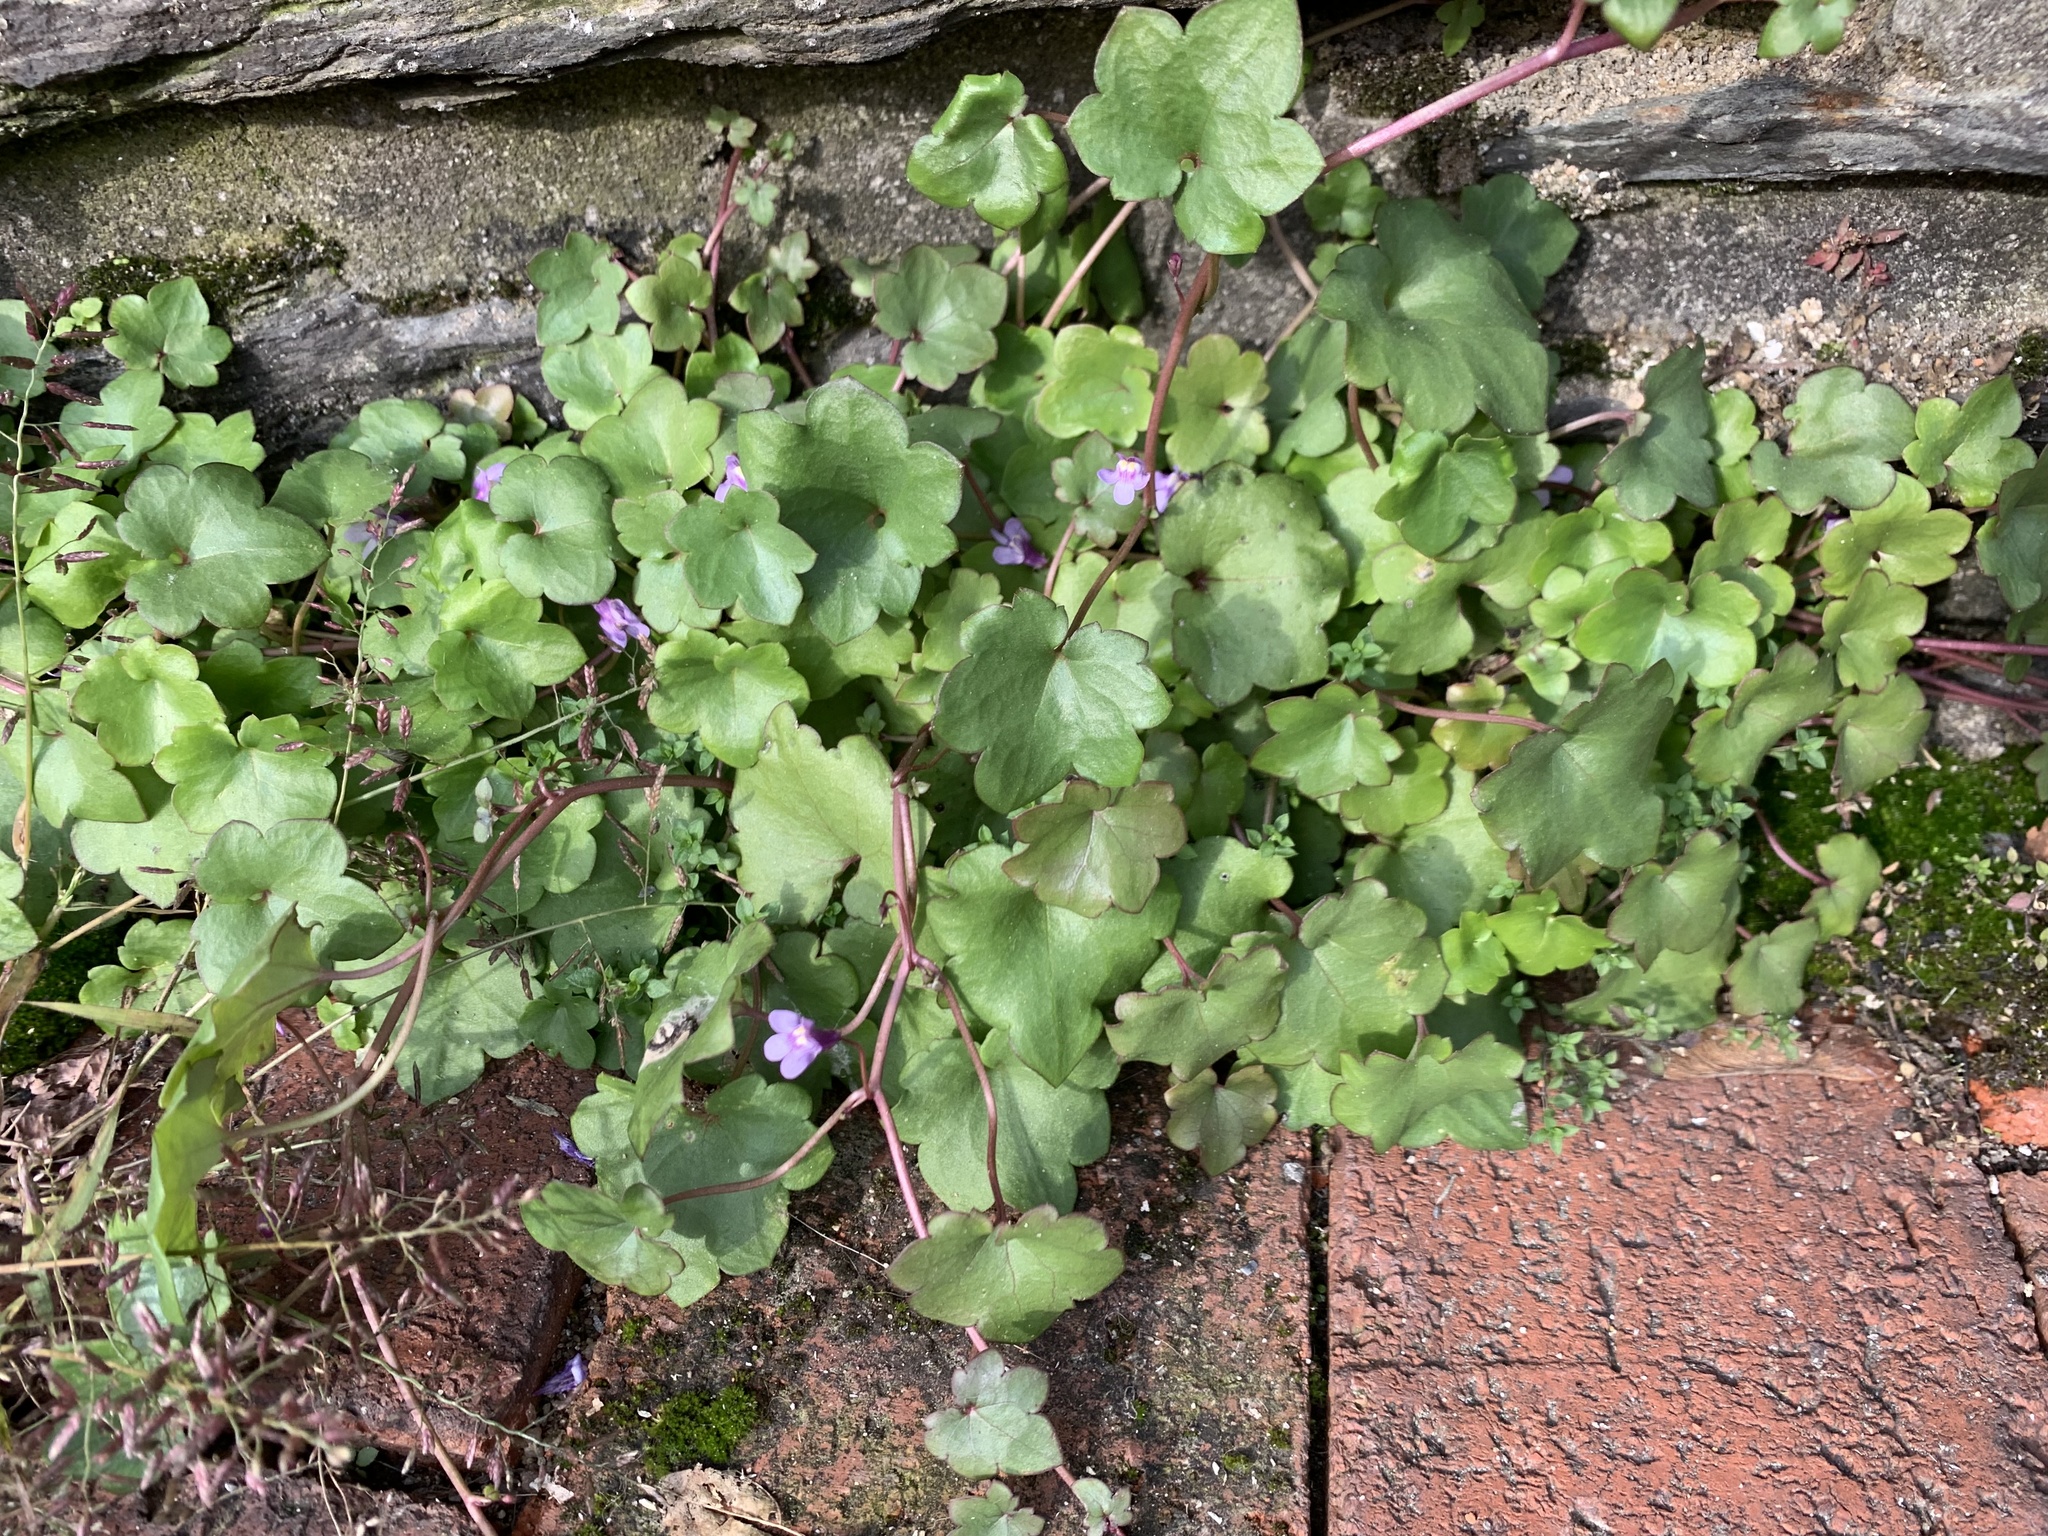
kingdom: Plantae
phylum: Tracheophyta
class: Magnoliopsida
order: Lamiales
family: Plantaginaceae
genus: Cymbalaria
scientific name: Cymbalaria muralis
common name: Ivy-leaved toadflax
